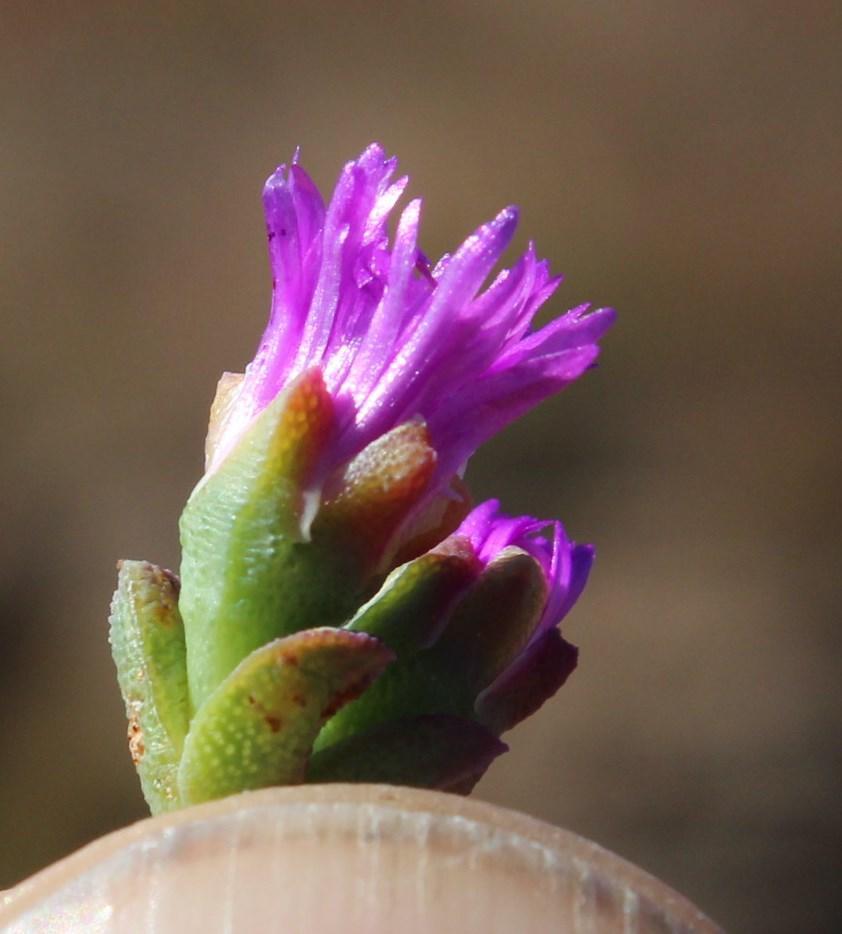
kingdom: Plantae
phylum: Tracheophyta
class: Magnoliopsida
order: Caryophyllales
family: Aizoaceae
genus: Ruschia
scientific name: Ruschia putterillii
